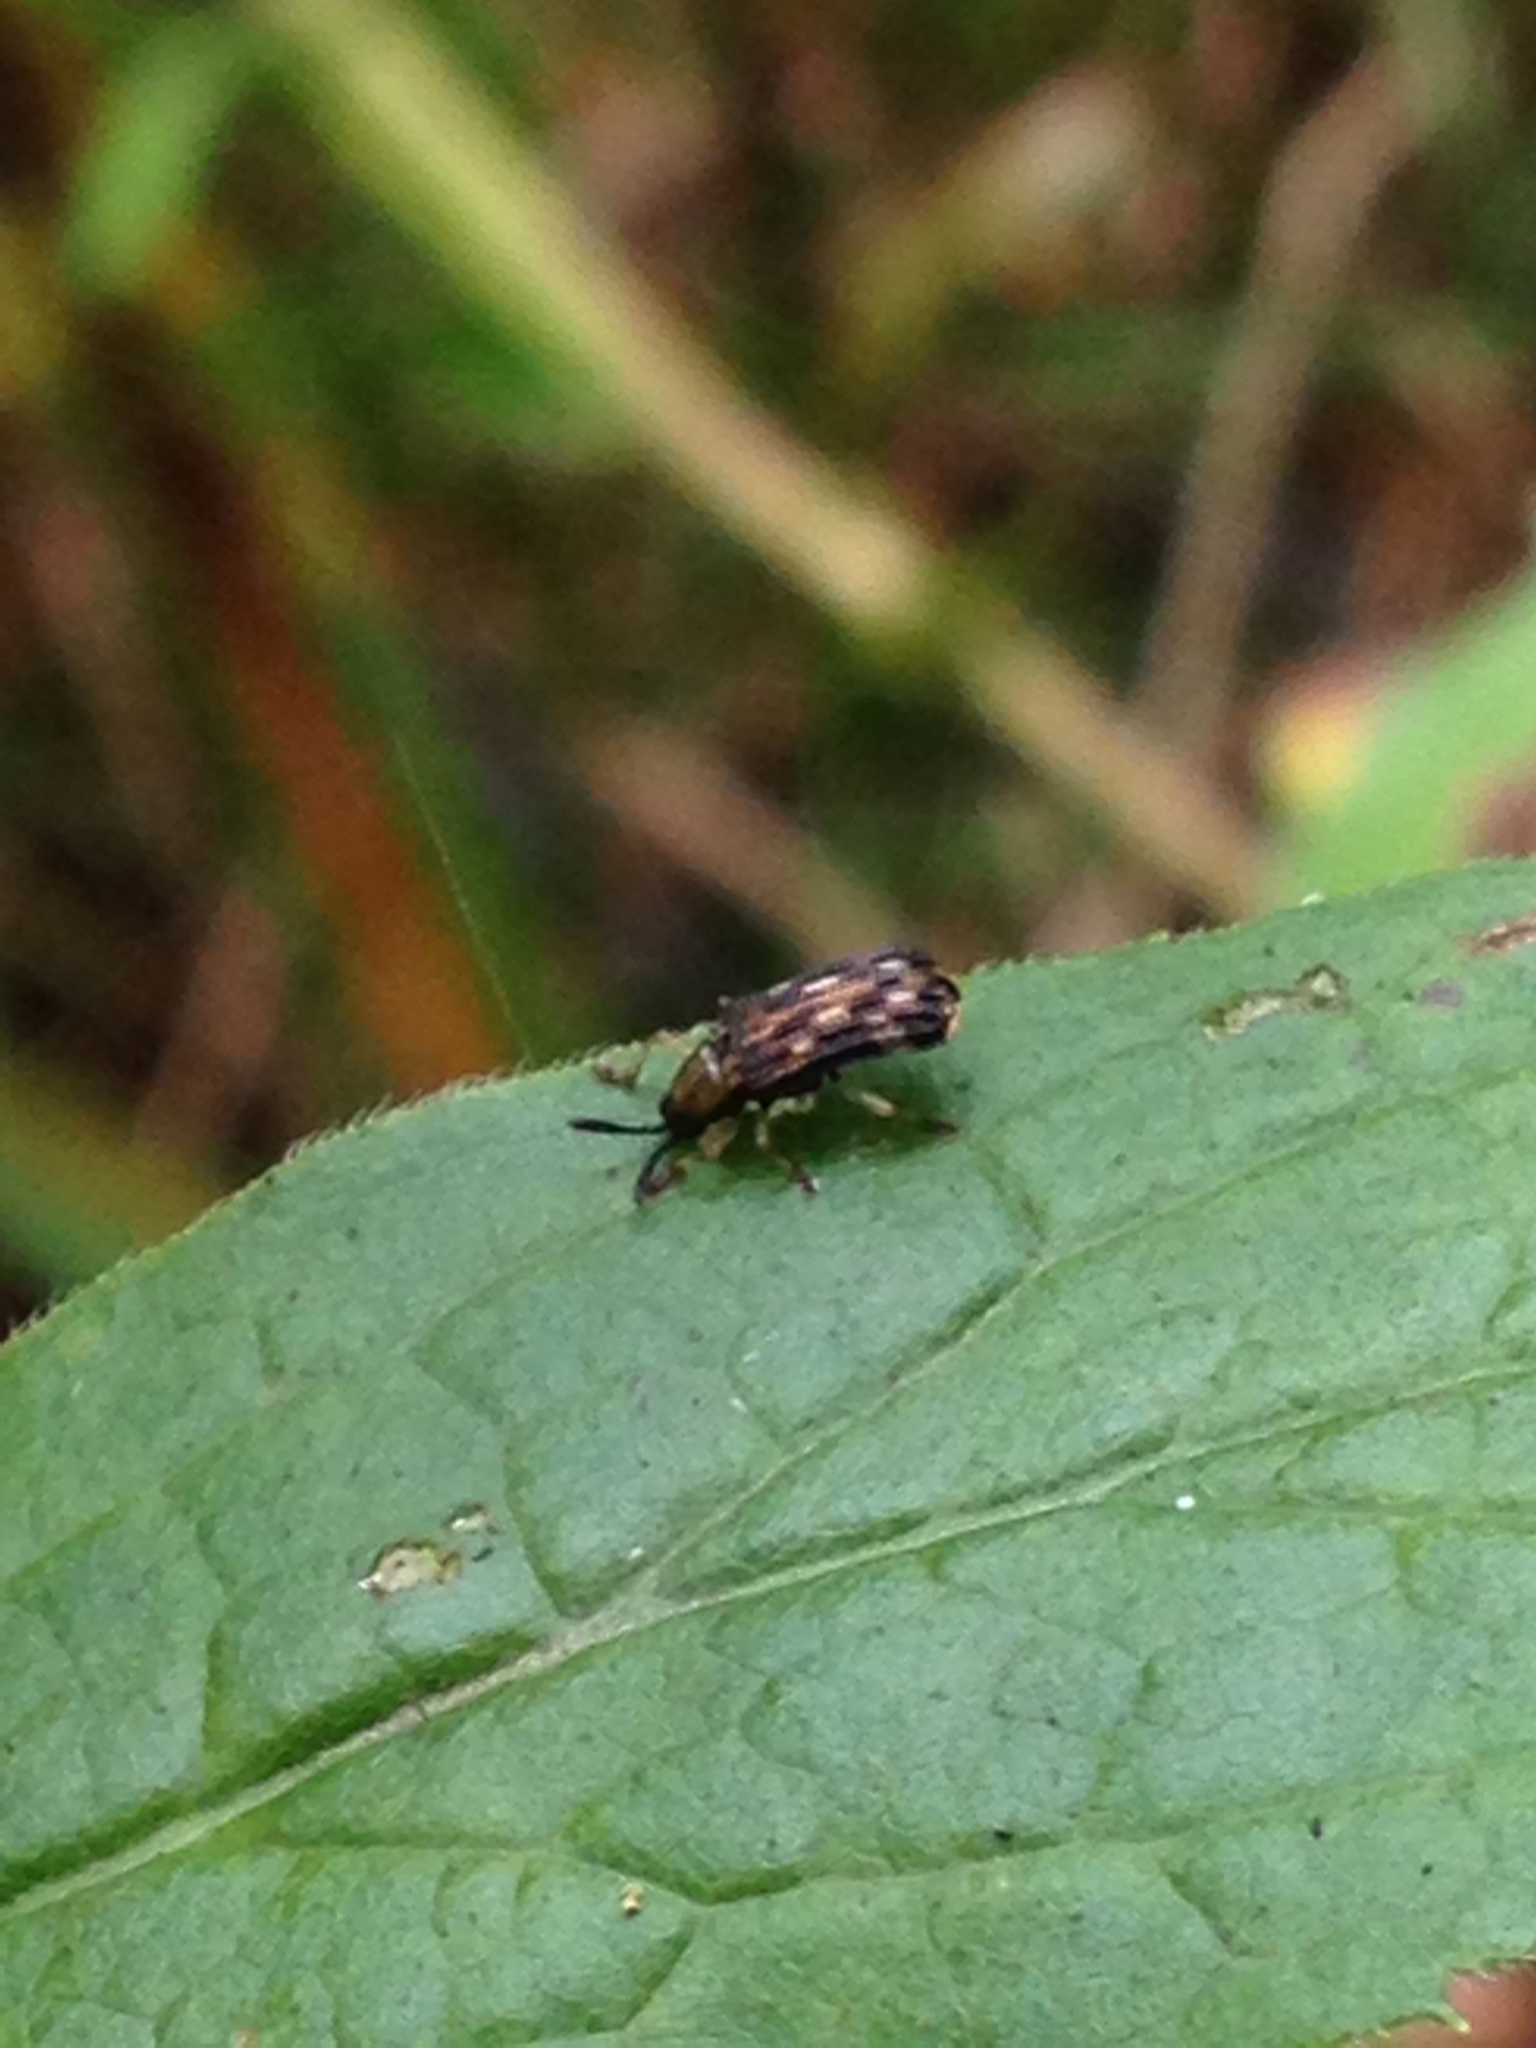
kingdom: Animalia
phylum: Arthropoda
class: Insecta
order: Coleoptera
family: Chrysomelidae
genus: Sumitrosis
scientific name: Sumitrosis inaequalis
